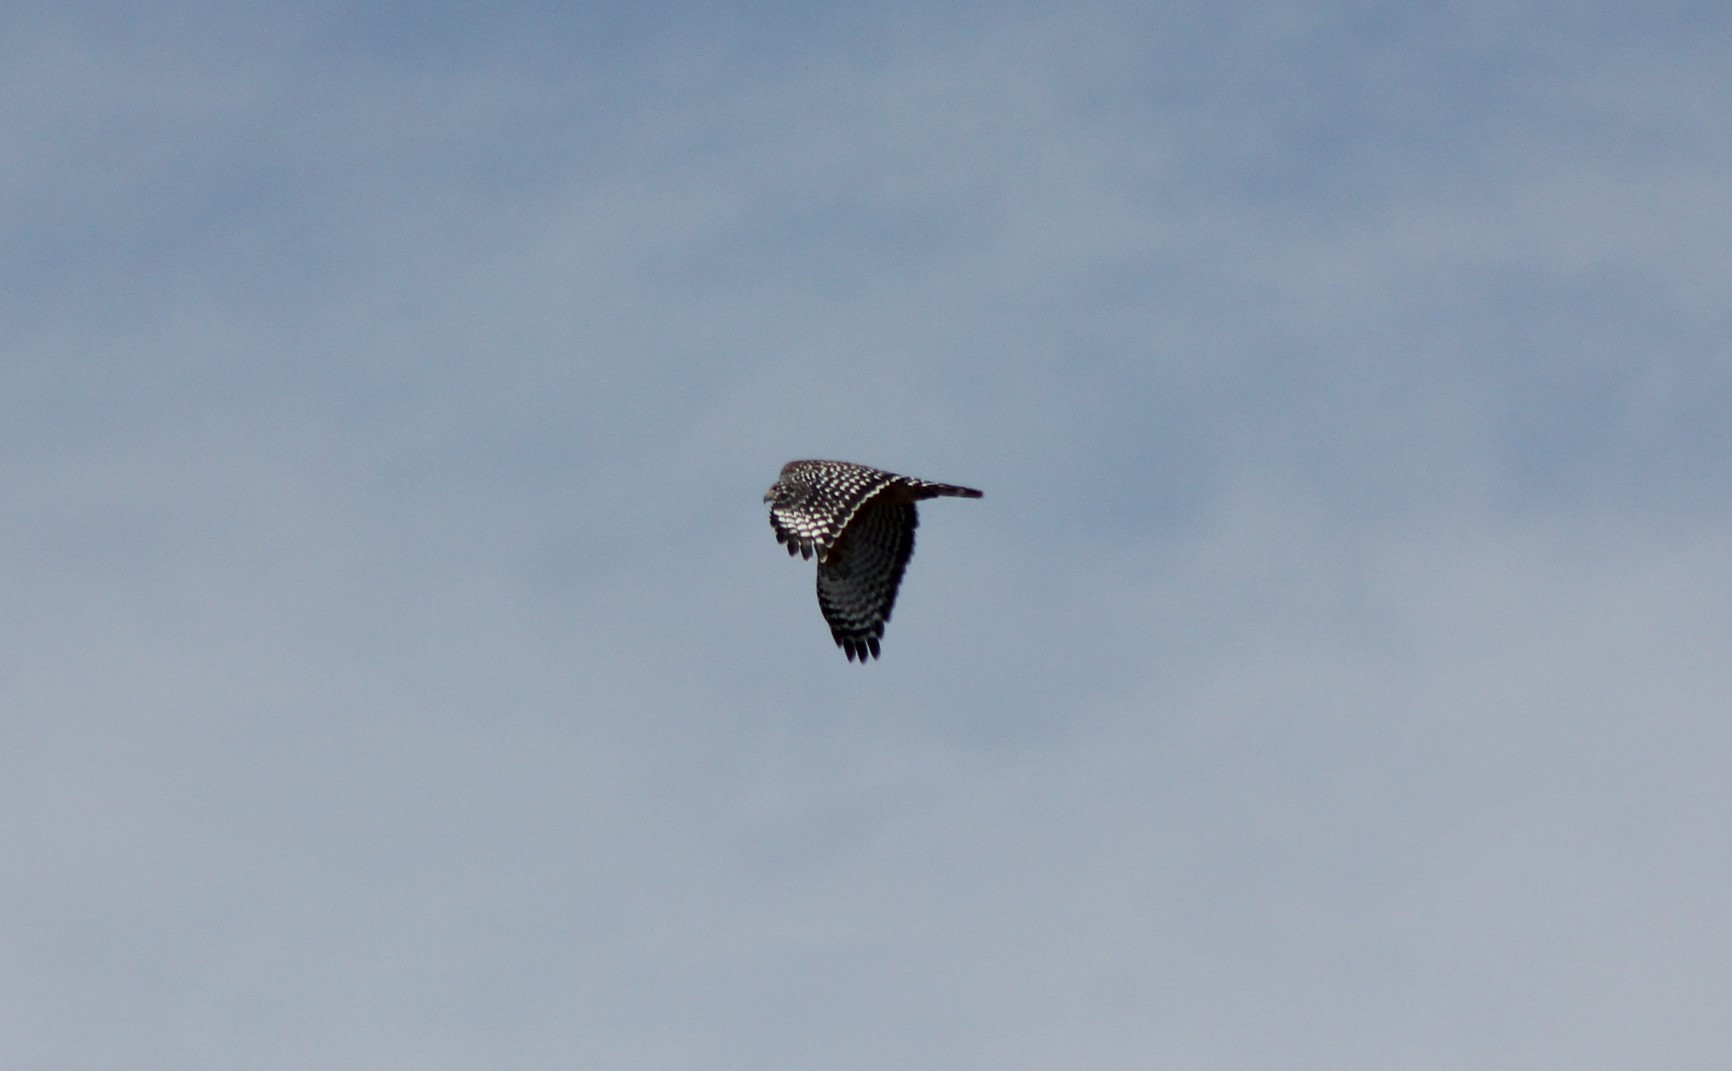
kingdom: Animalia
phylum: Chordata
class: Aves
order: Accipitriformes
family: Accipitridae
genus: Buteo
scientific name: Buteo lineatus
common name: Red-shouldered hawk
